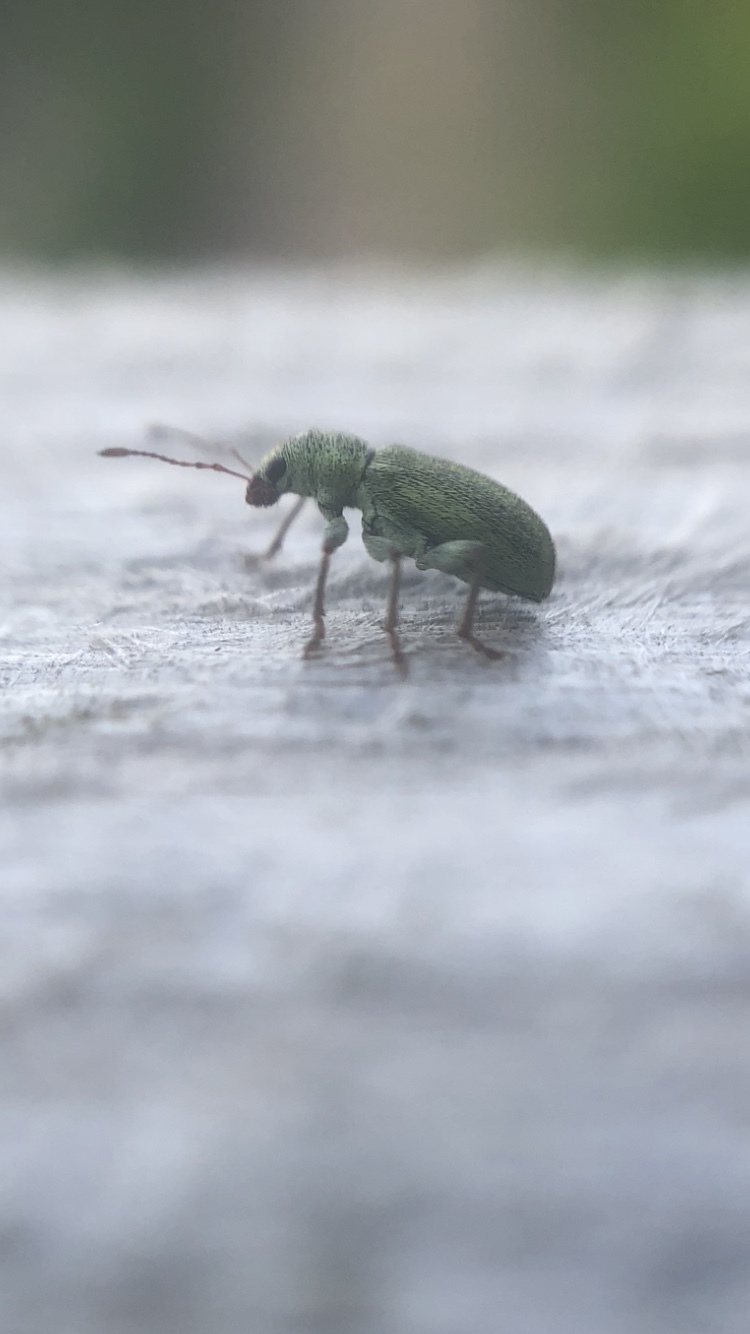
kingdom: Animalia
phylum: Arthropoda
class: Insecta
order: Coleoptera
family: Curculionidae
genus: Pachyrhinus
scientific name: Pachyrhinus lethierryi
